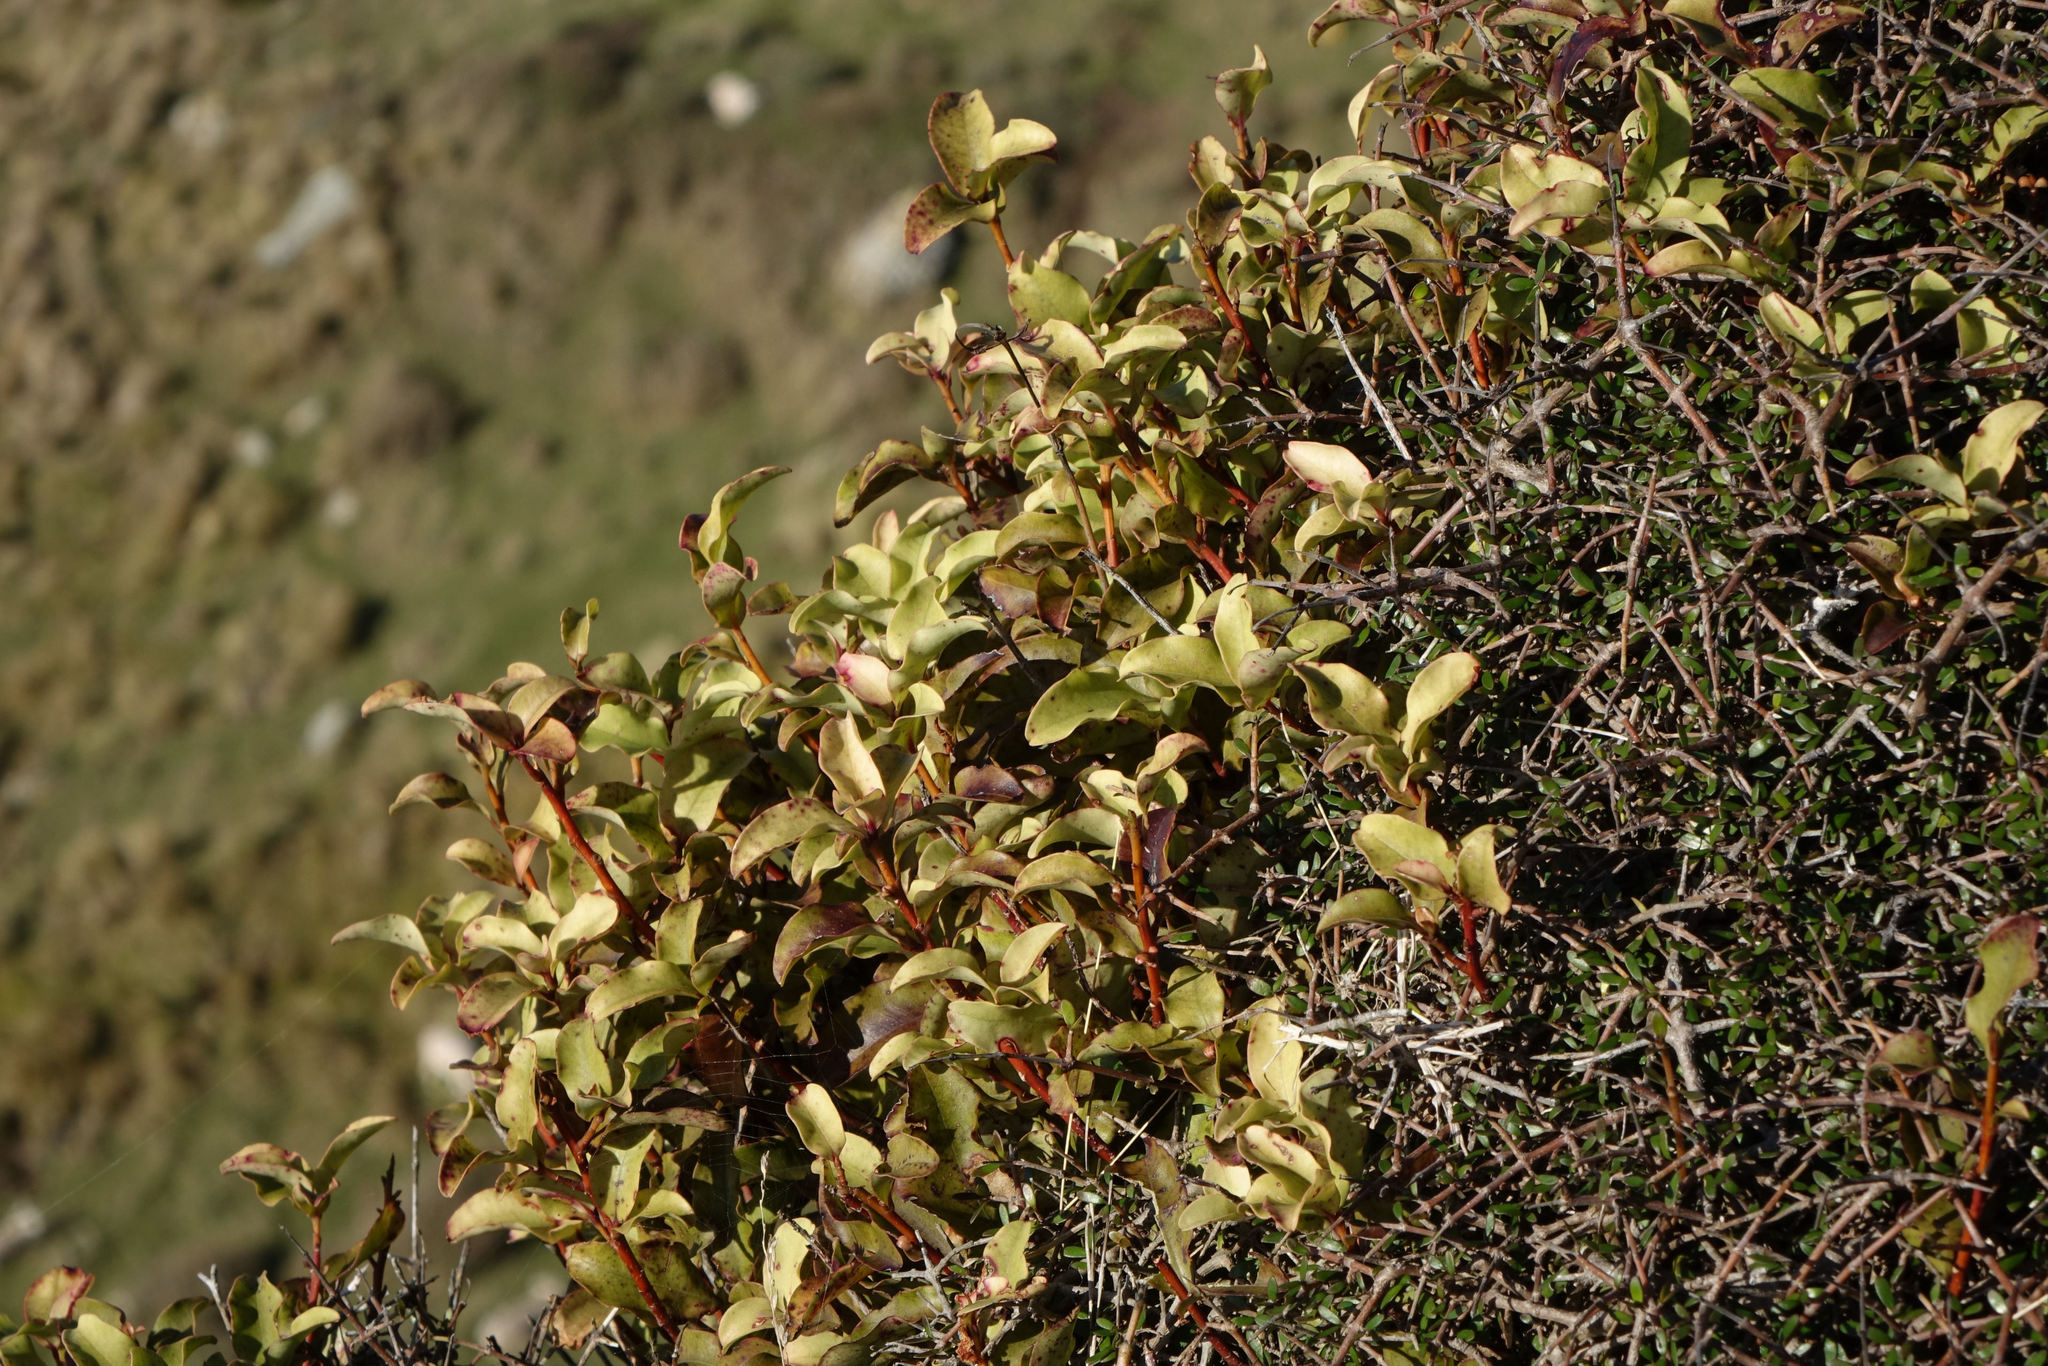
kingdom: Plantae
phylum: Tracheophyta
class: Magnoliopsida
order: Ericales
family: Primulaceae
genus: Myrsine
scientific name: Myrsine australis
